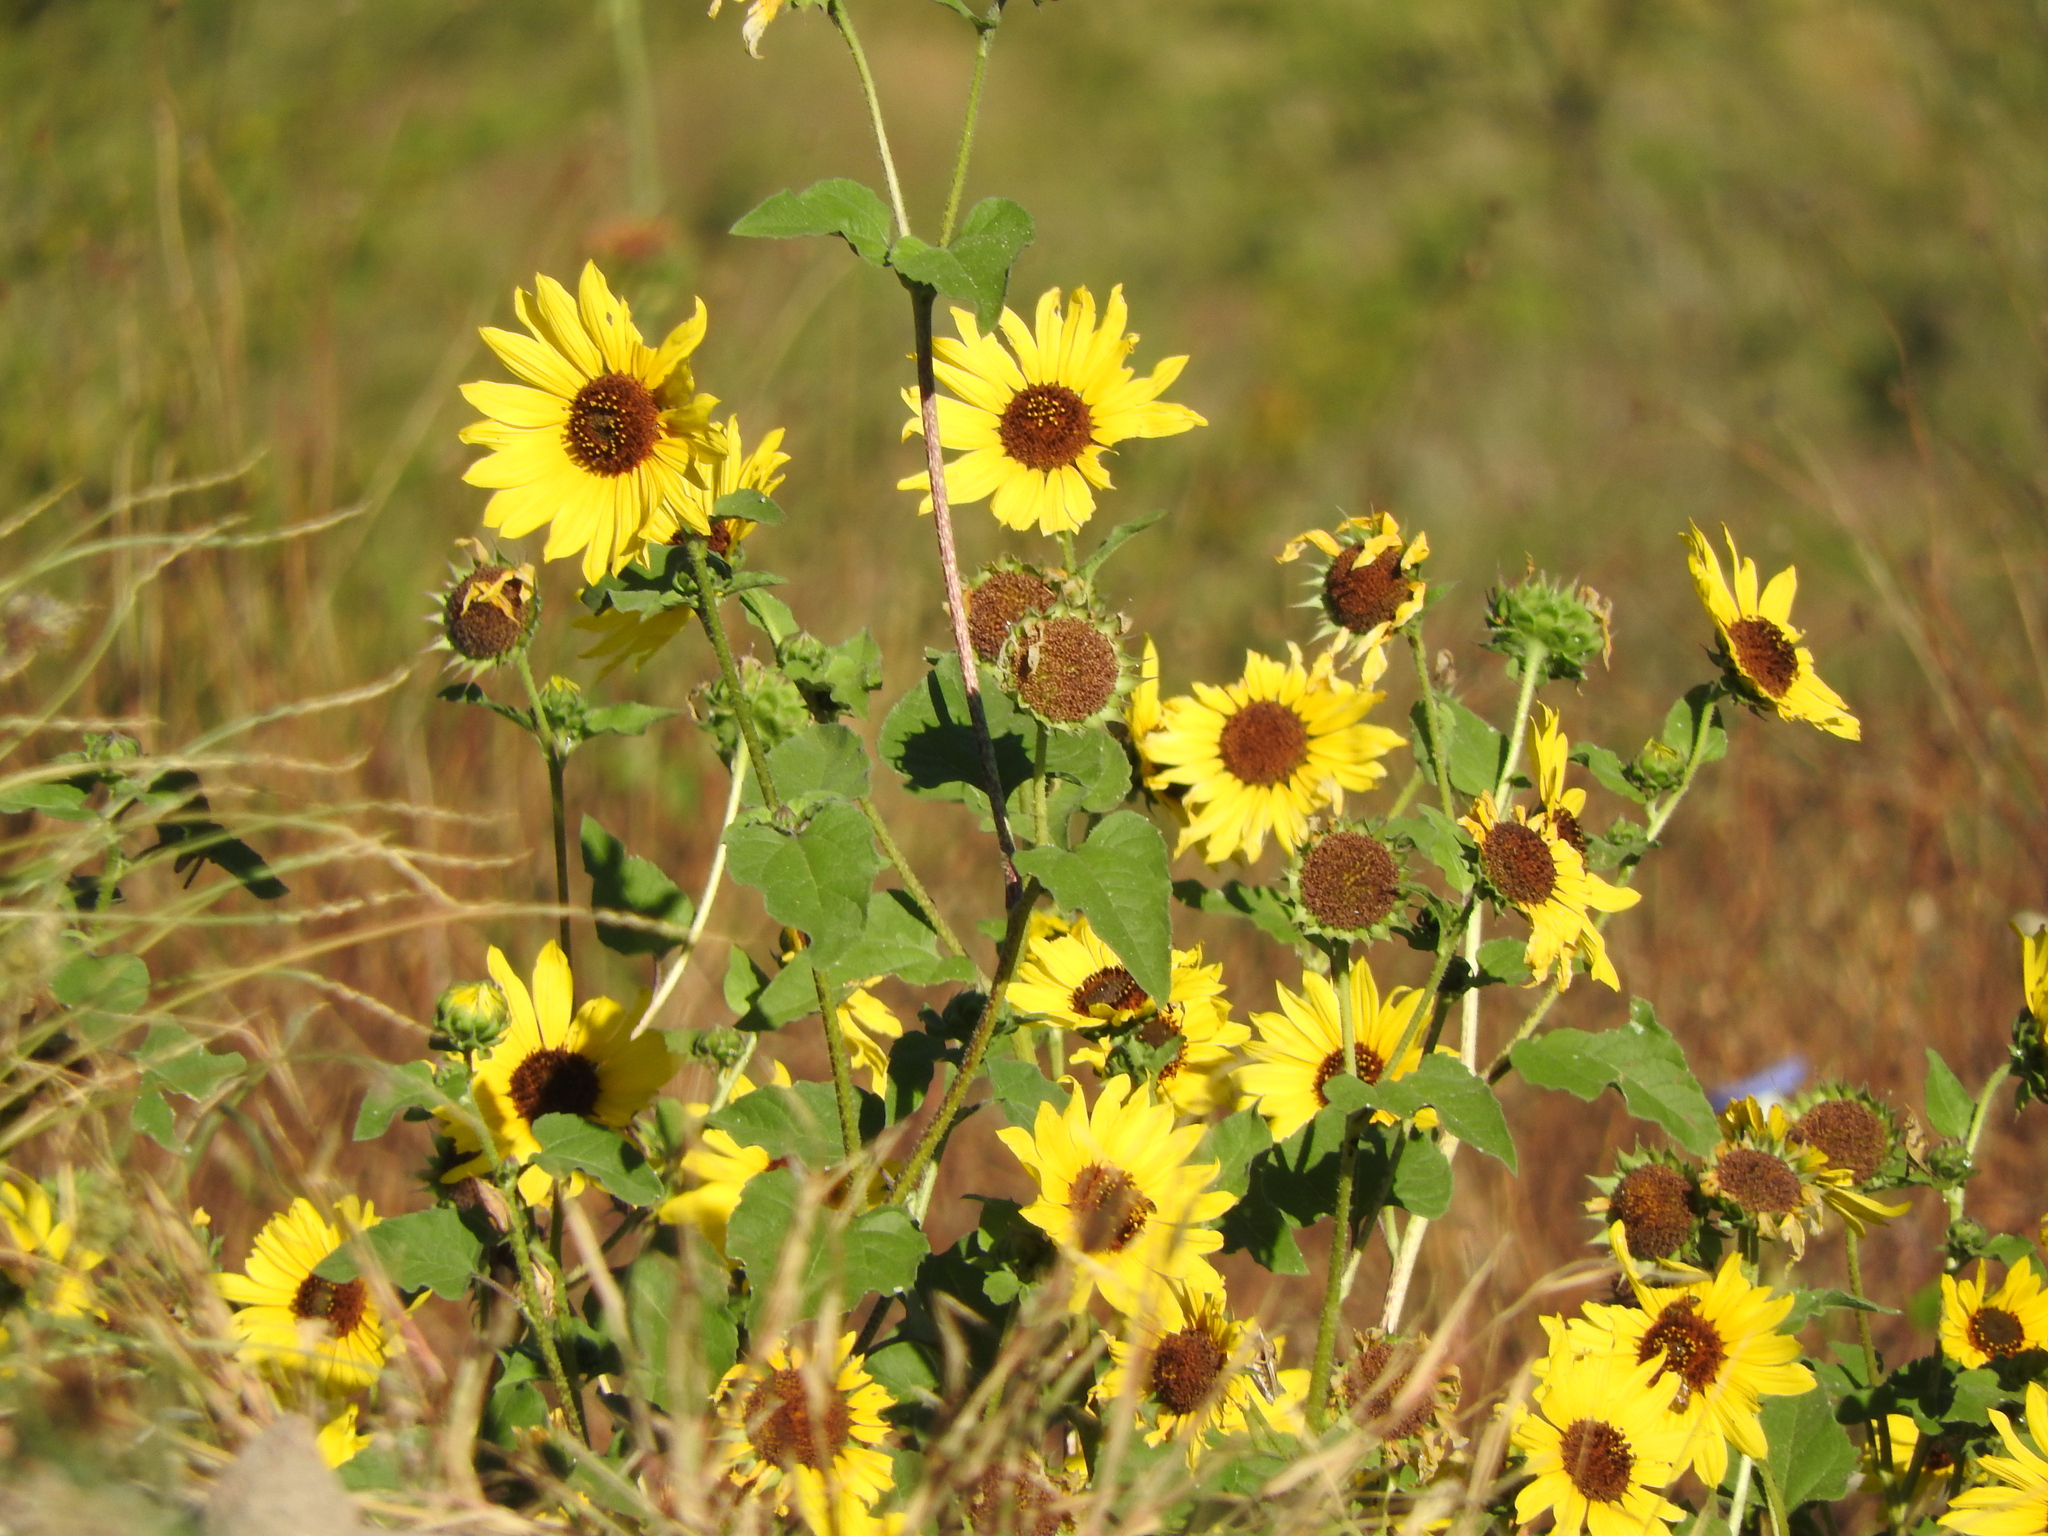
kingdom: Plantae
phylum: Tracheophyta
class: Magnoliopsida
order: Asterales
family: Asteraceae
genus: Helianthus
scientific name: Helianthus annuus
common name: Sunflower
